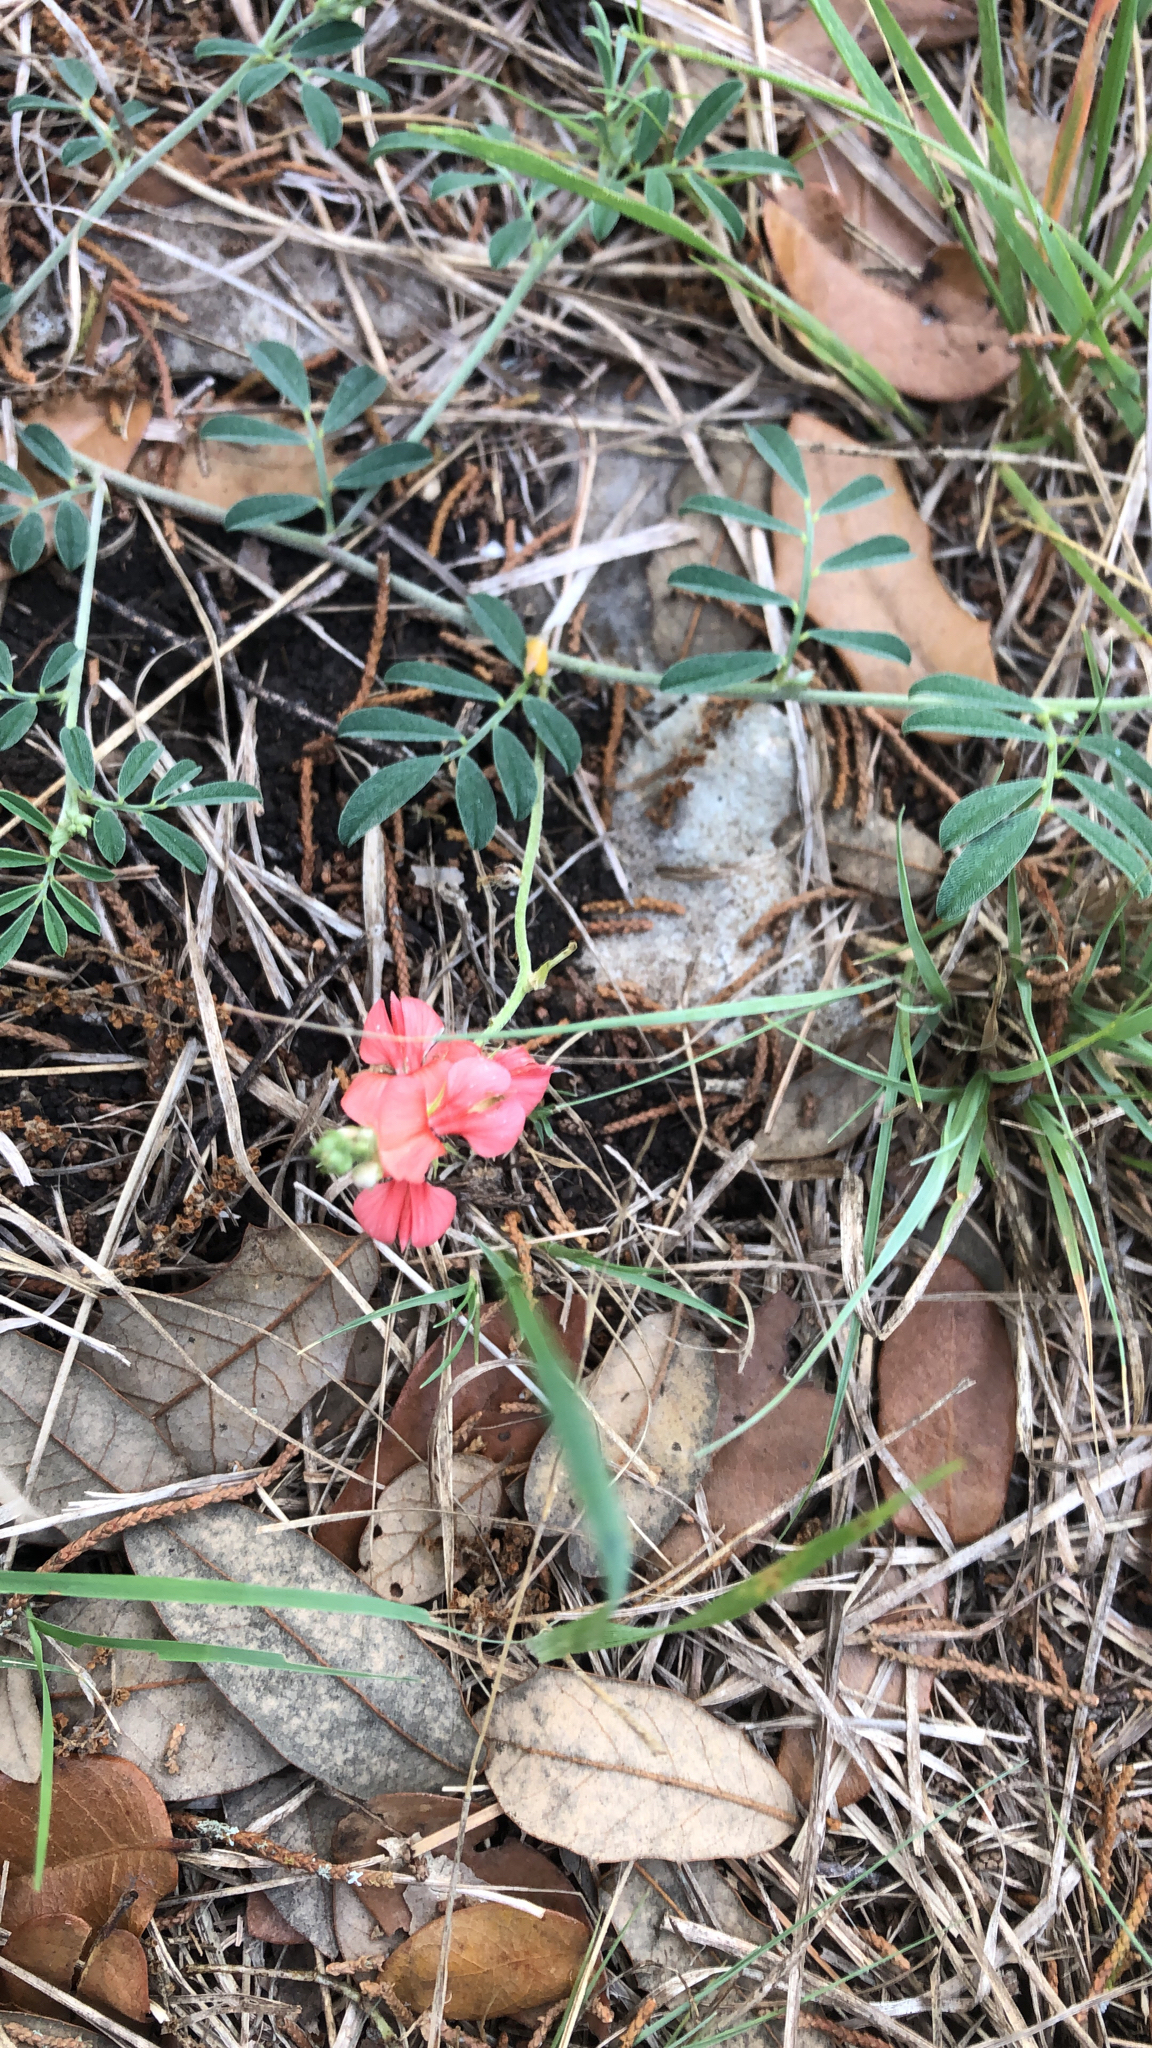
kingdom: Plantae
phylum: Tracheophyta
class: Magnoliopsida
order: Fabales
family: Fabaceae
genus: Indigofera
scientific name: Indigofera miniata
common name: Coast indigo
